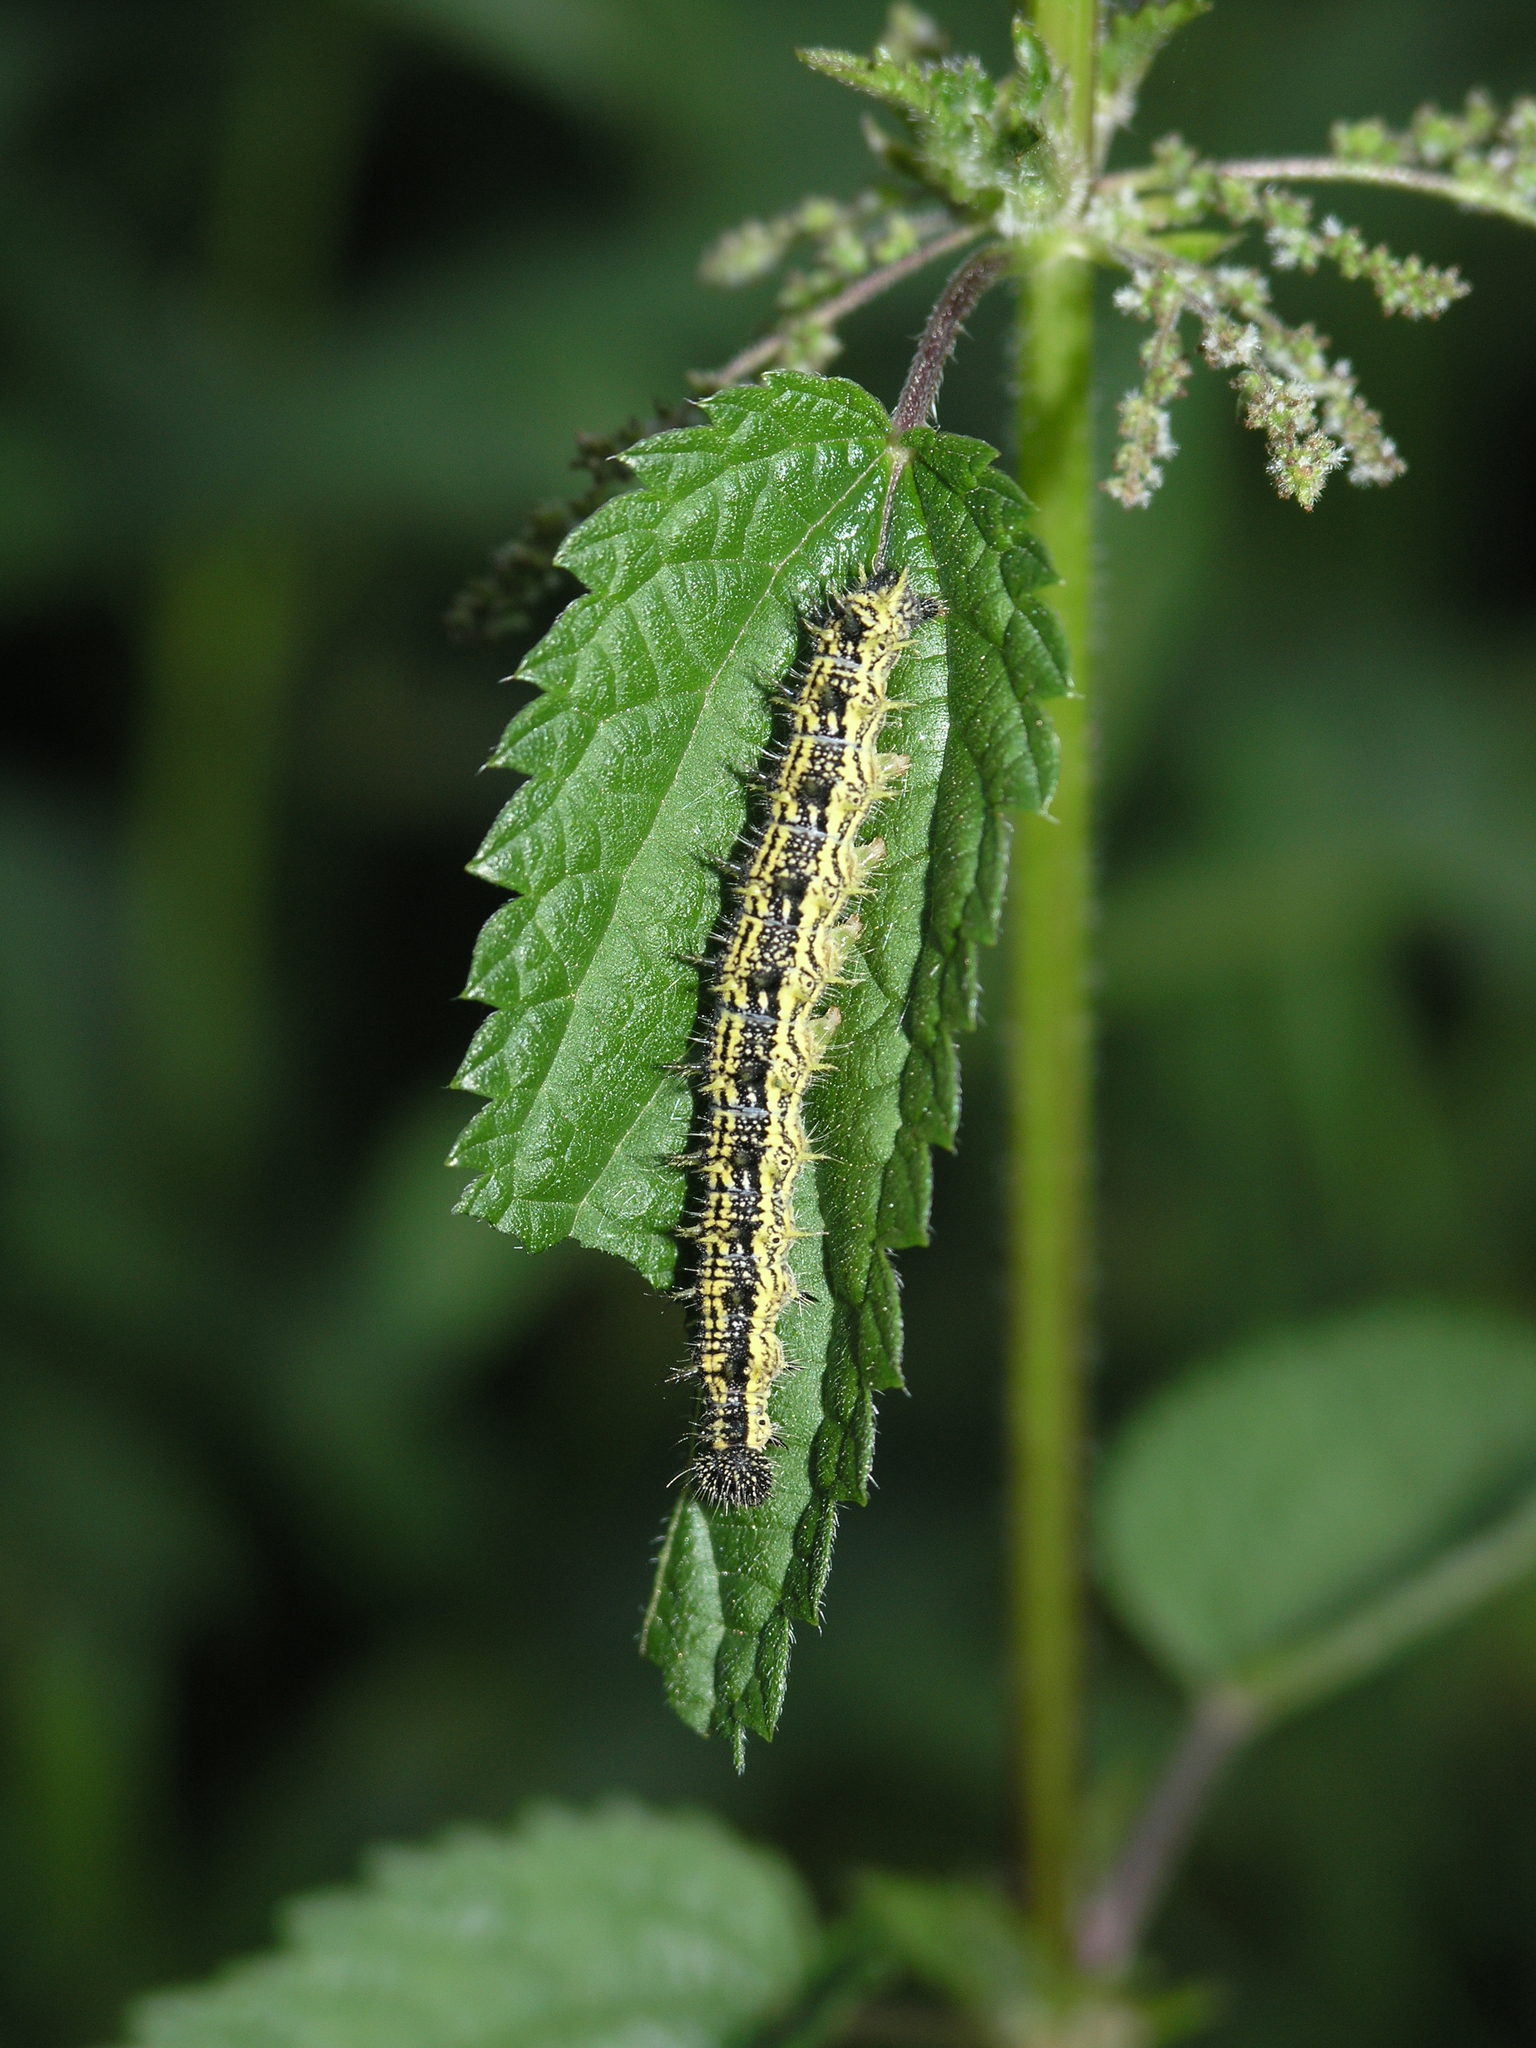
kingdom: Animalia
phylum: Arthropoda
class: Insecta
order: Lepidoptera
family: Nymphalidae
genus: Aglais
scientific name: Aglais urticae
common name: Small tortoiseshell
